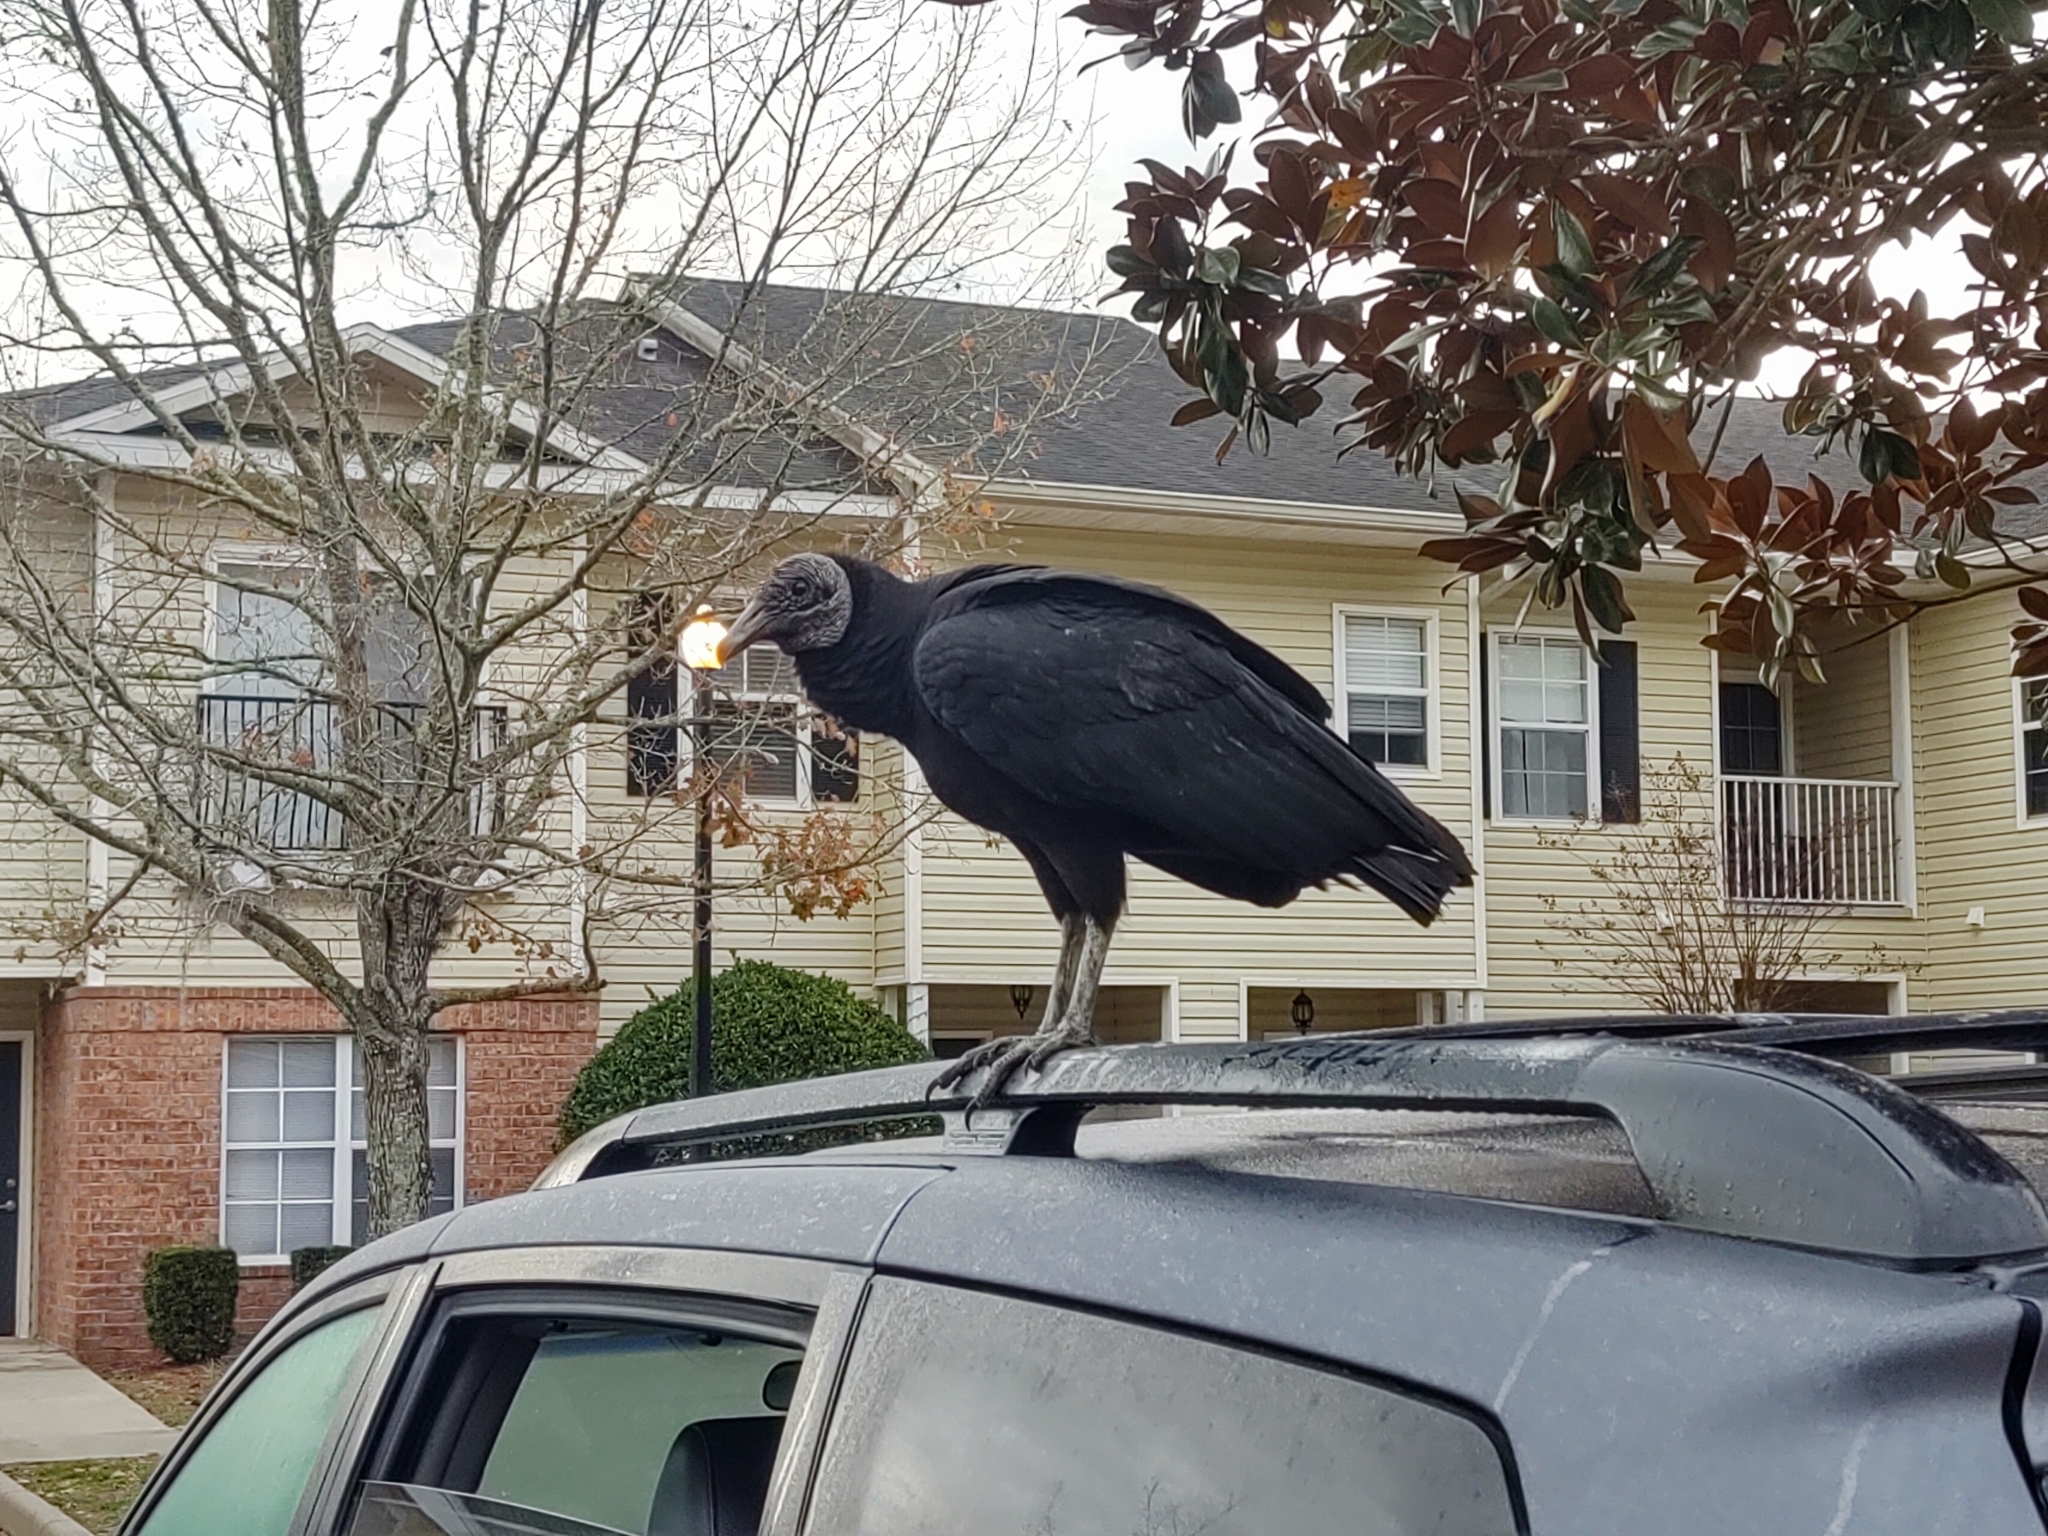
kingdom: Animalia
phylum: Chordata
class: Aves
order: Accipitriformes
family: Cathartidae
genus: Coragyps
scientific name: Coragyps atratus
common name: Black vulture
